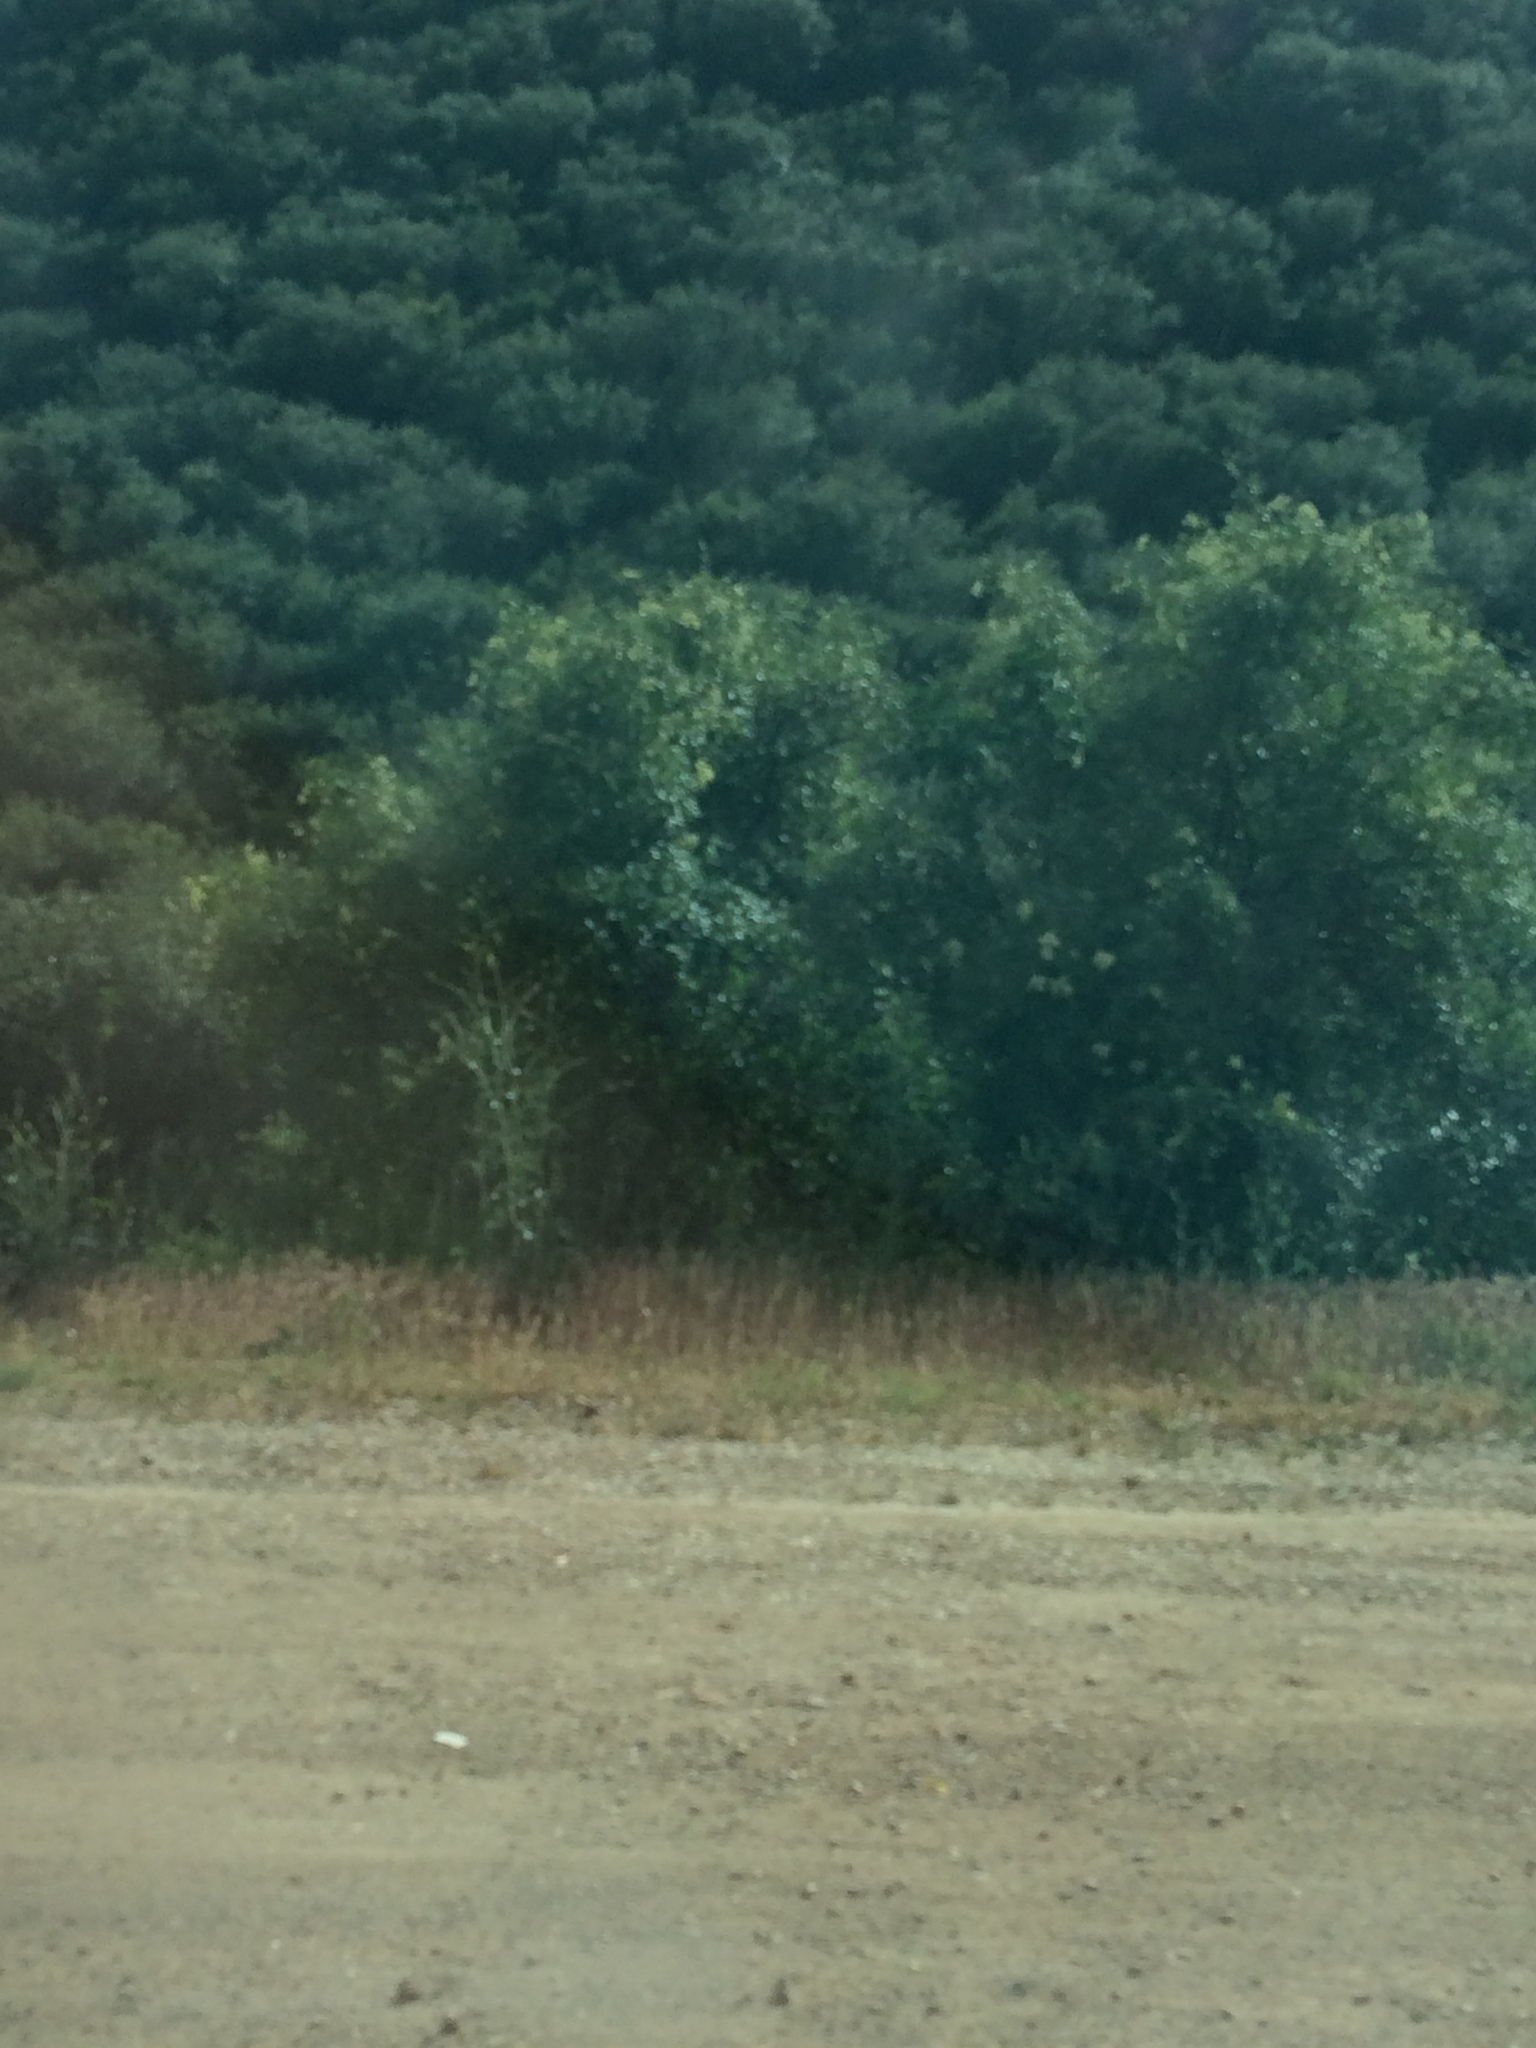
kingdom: Plantae
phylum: Tracheophyta
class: Magnoliopsida
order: Dipsacales
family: Viburnaceae
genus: Sambucus
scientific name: Sambucus cerulea
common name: Blue elder
